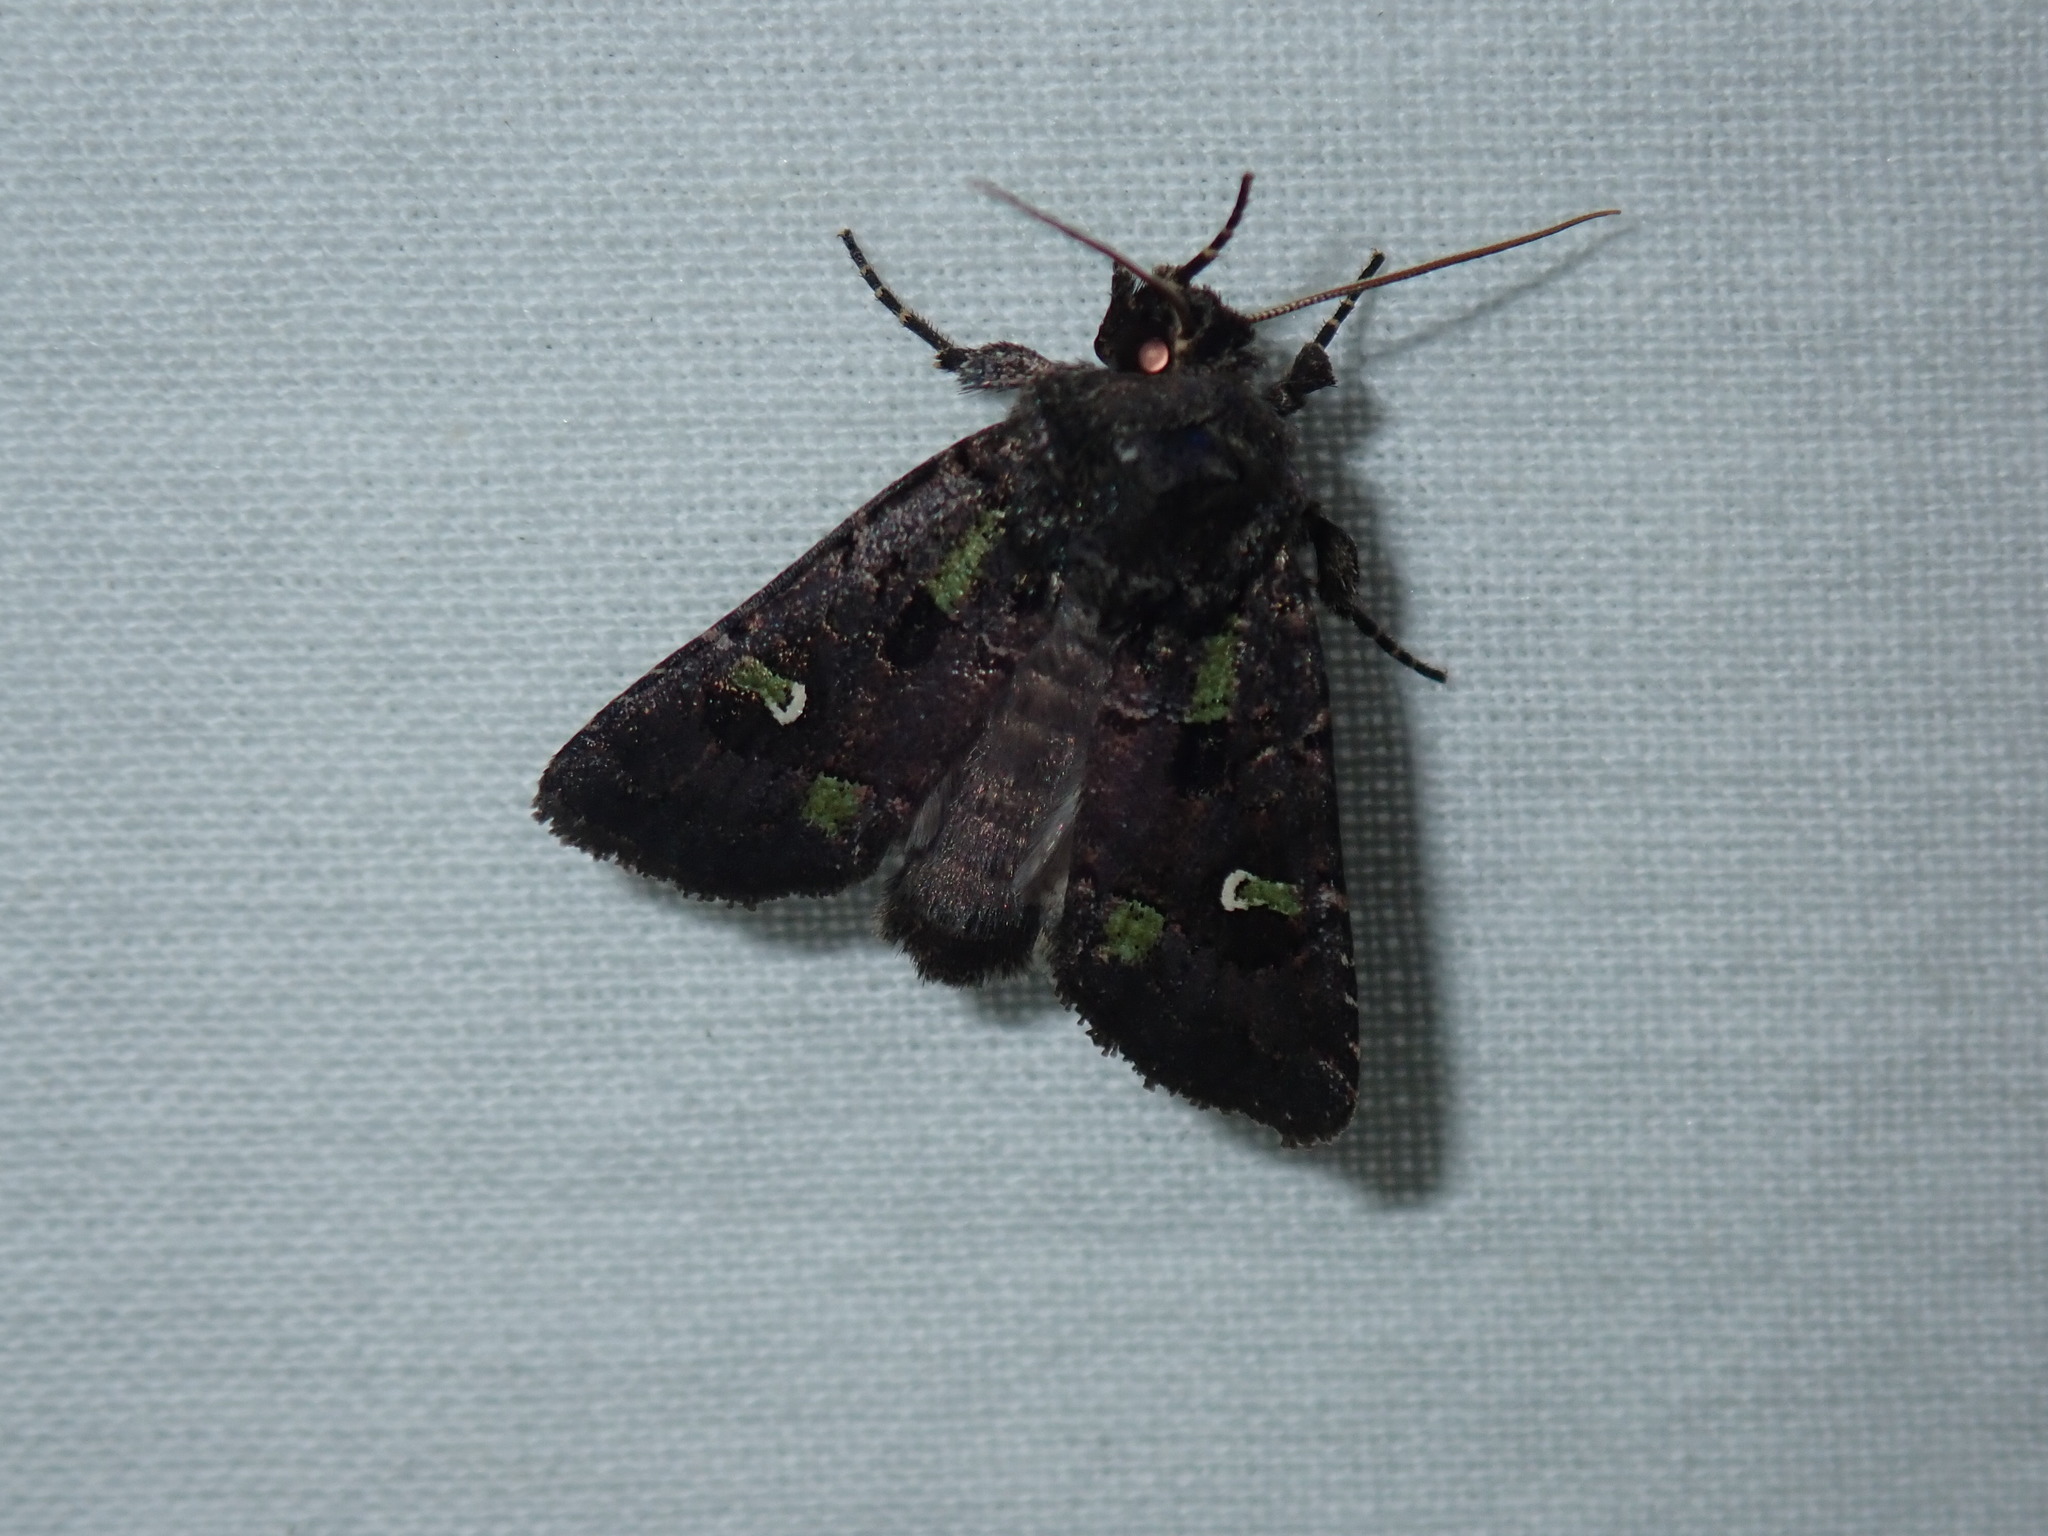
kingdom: Animalia
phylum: Arthropoda
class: Insecta
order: Lepidoptera
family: Noctuidae
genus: Lacinipolia
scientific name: Lacinipolia renigera
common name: Kidney-spotted minor
